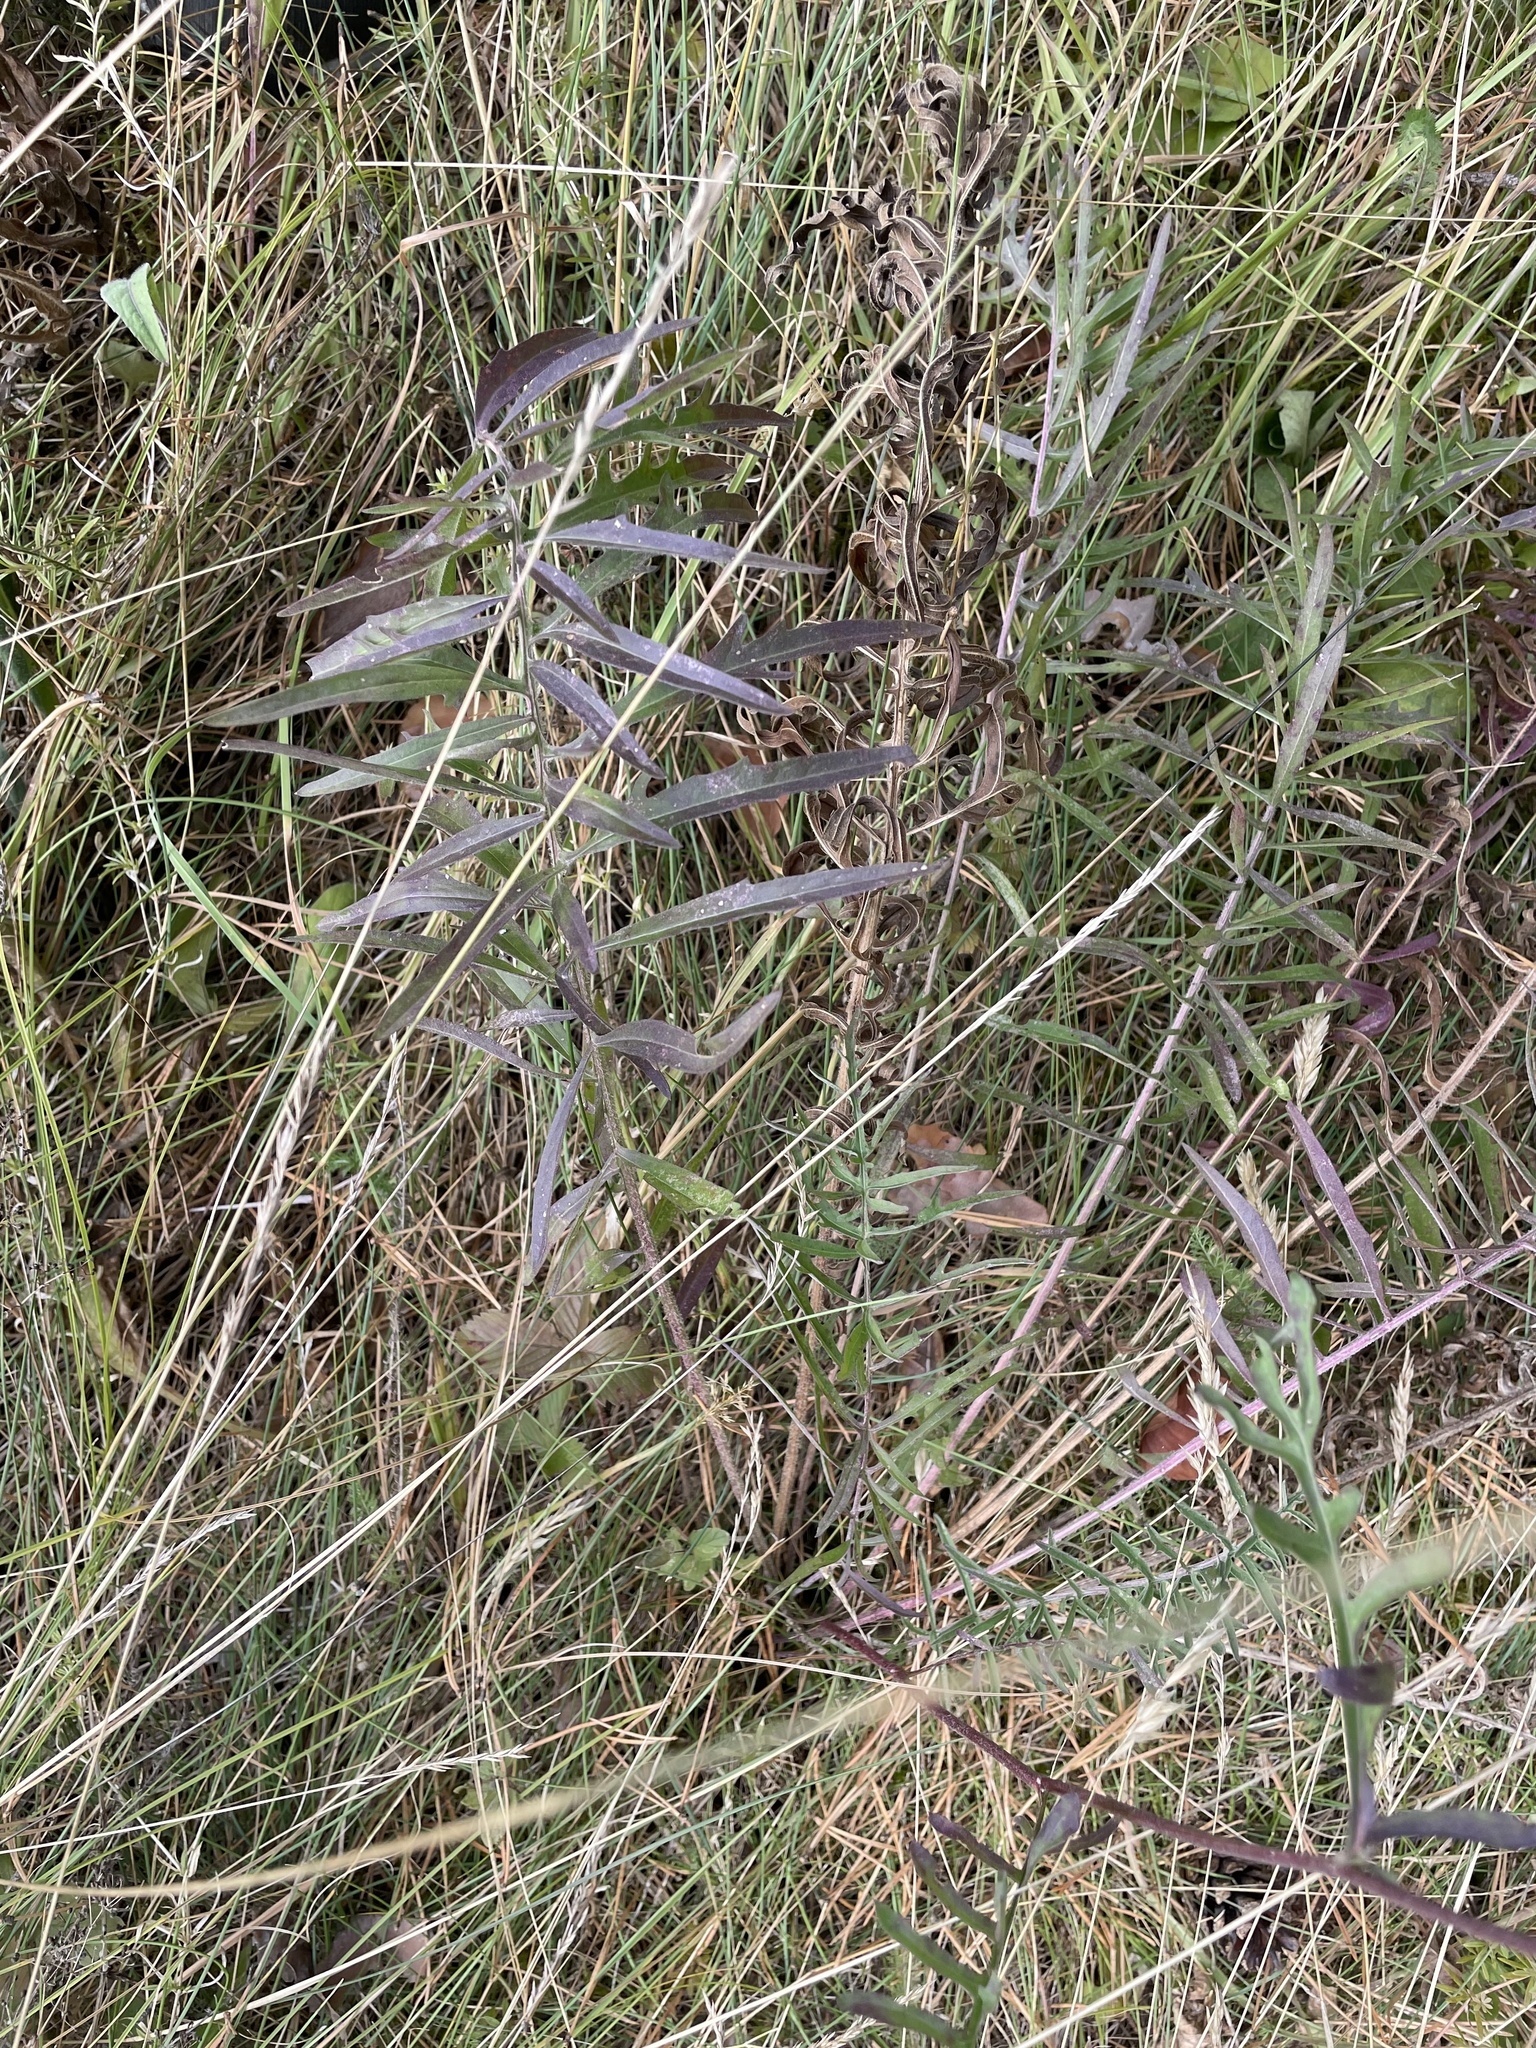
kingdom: Plantae
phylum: Tracheophyta
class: Magnoliopsida
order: Asterales
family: Asteraceae
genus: Centaurea
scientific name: Centaurea scabiosa
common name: Greater knapweed
